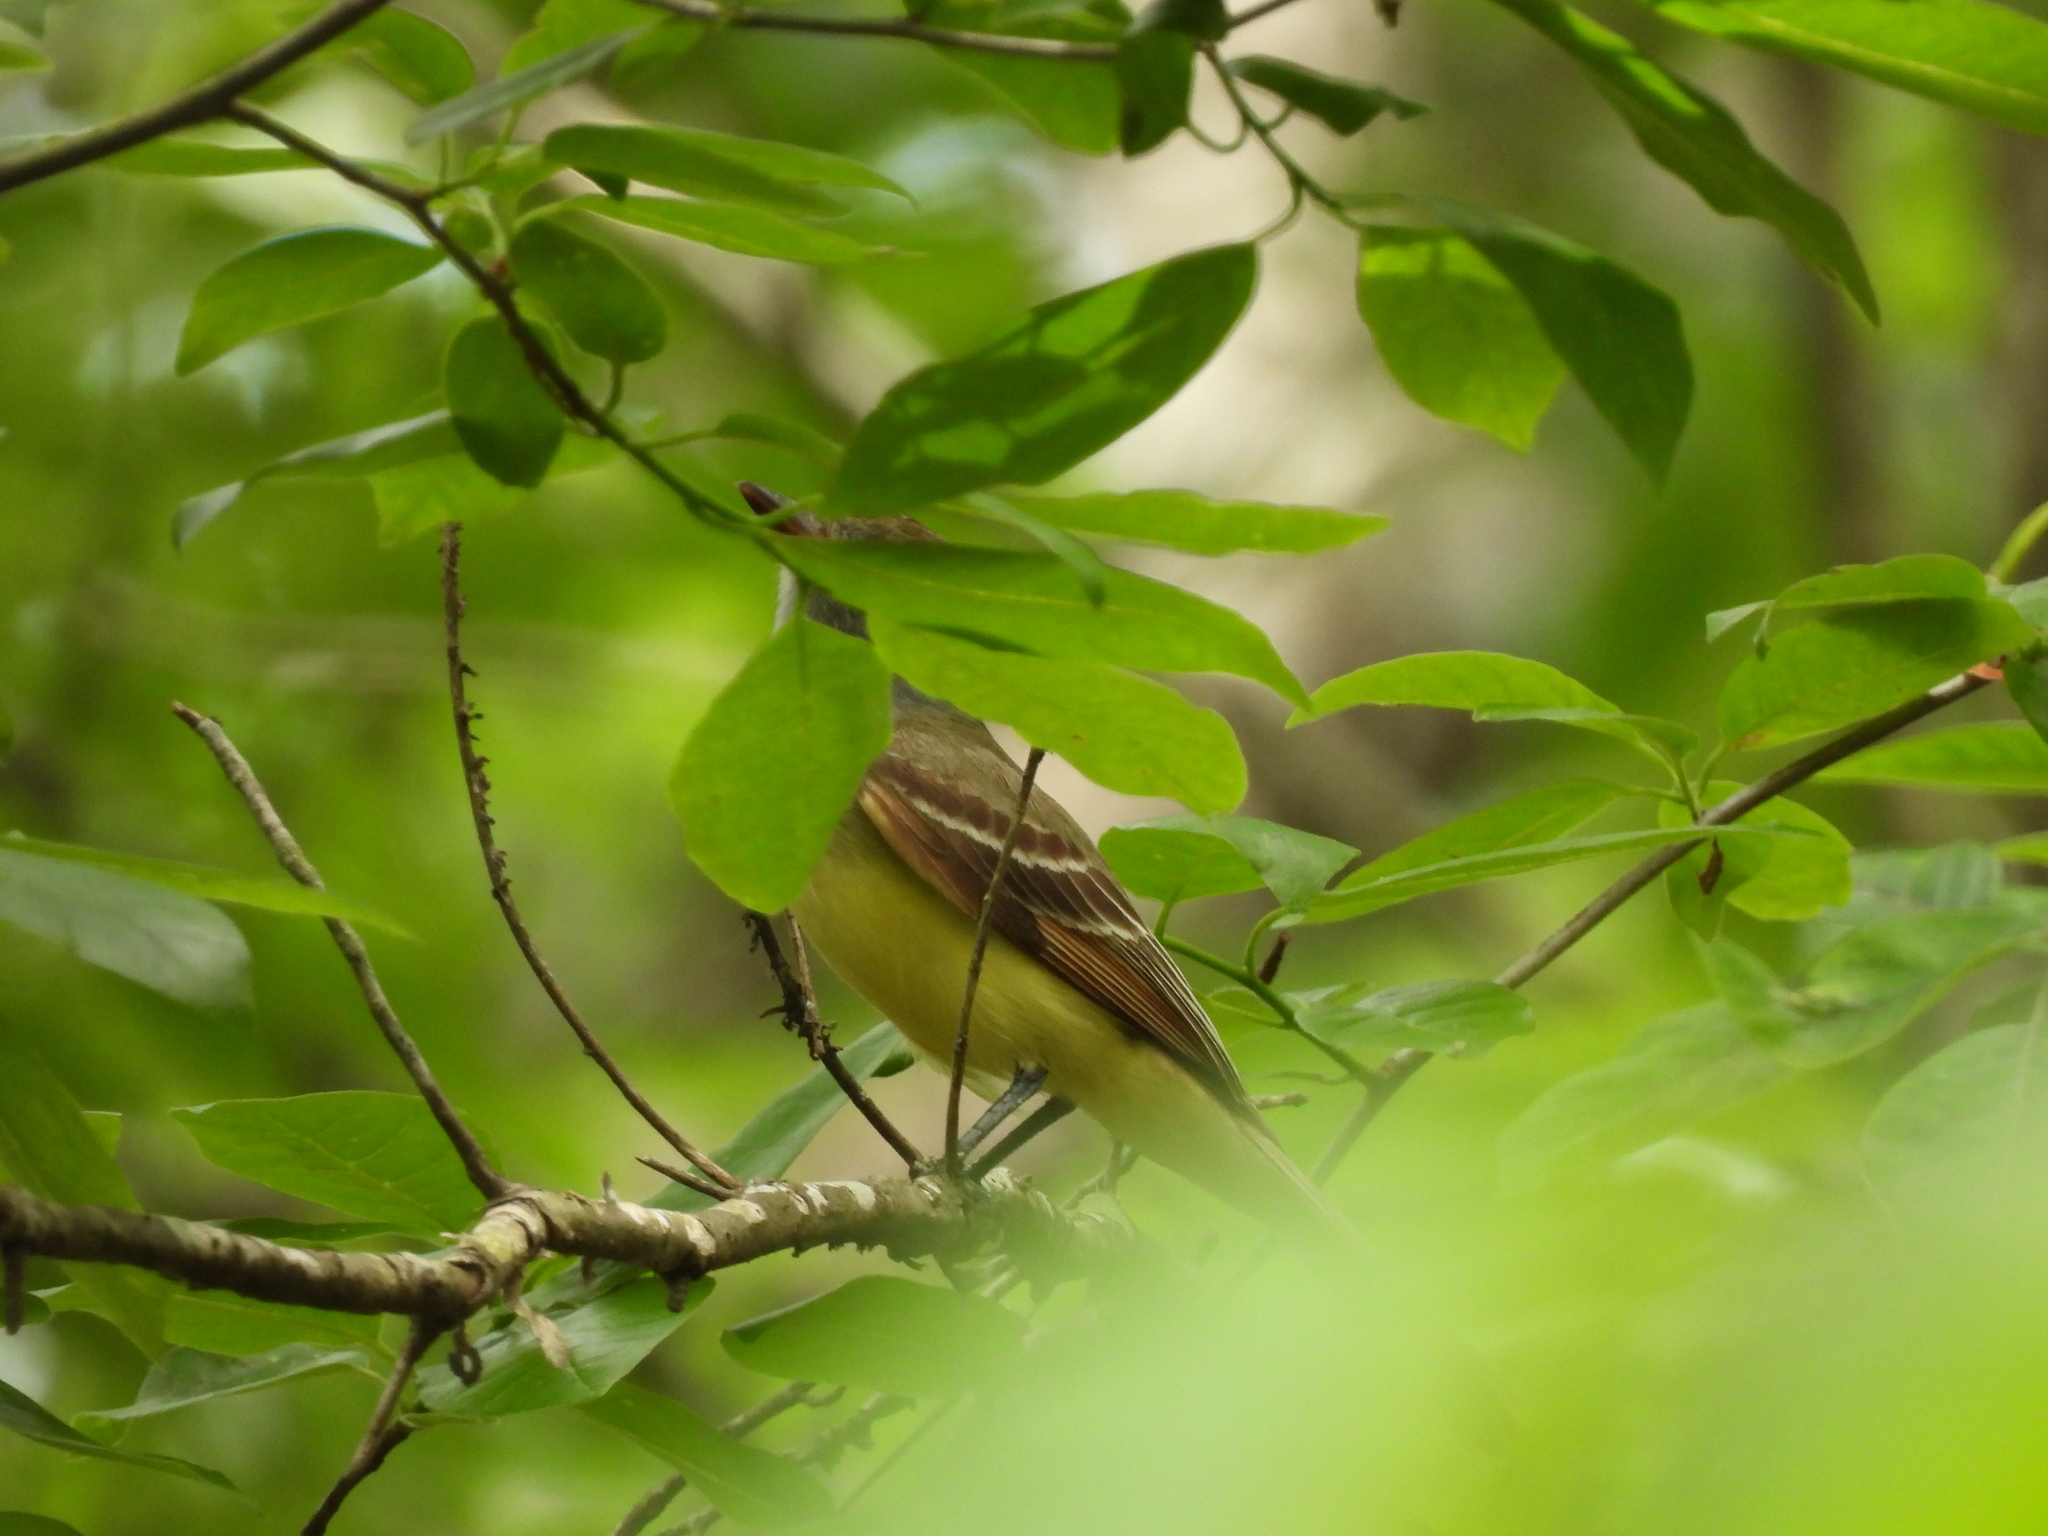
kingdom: Animalia
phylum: Chordata
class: Aves
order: Passeriformes
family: Tyrannidae
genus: Myiarchus
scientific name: Myiarchus crinitus
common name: Great crested flycatcher
